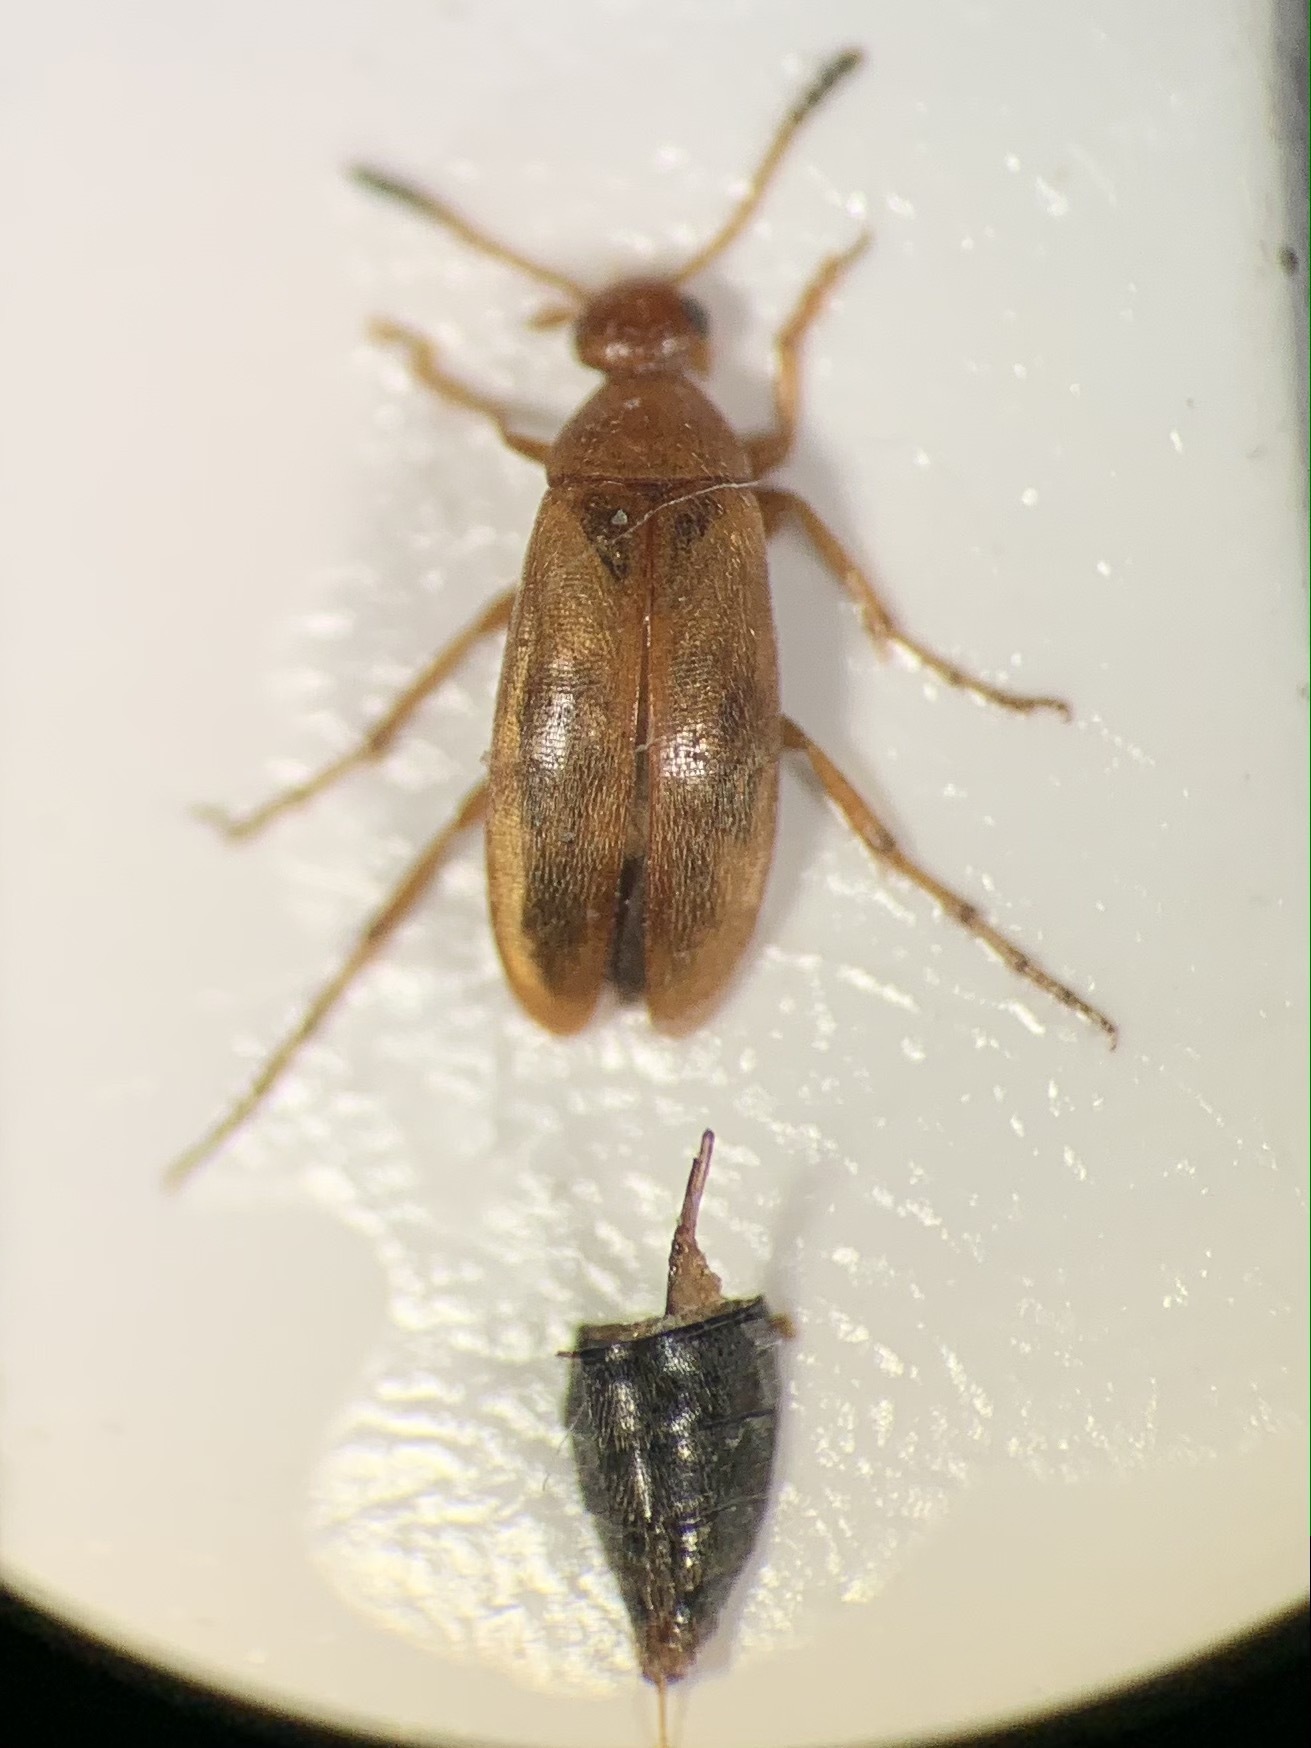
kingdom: Animalia
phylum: Arthropoda
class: Insecta
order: Coleoptera
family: Scraptiidae
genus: Anaspis
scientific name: Anaspis maculata
